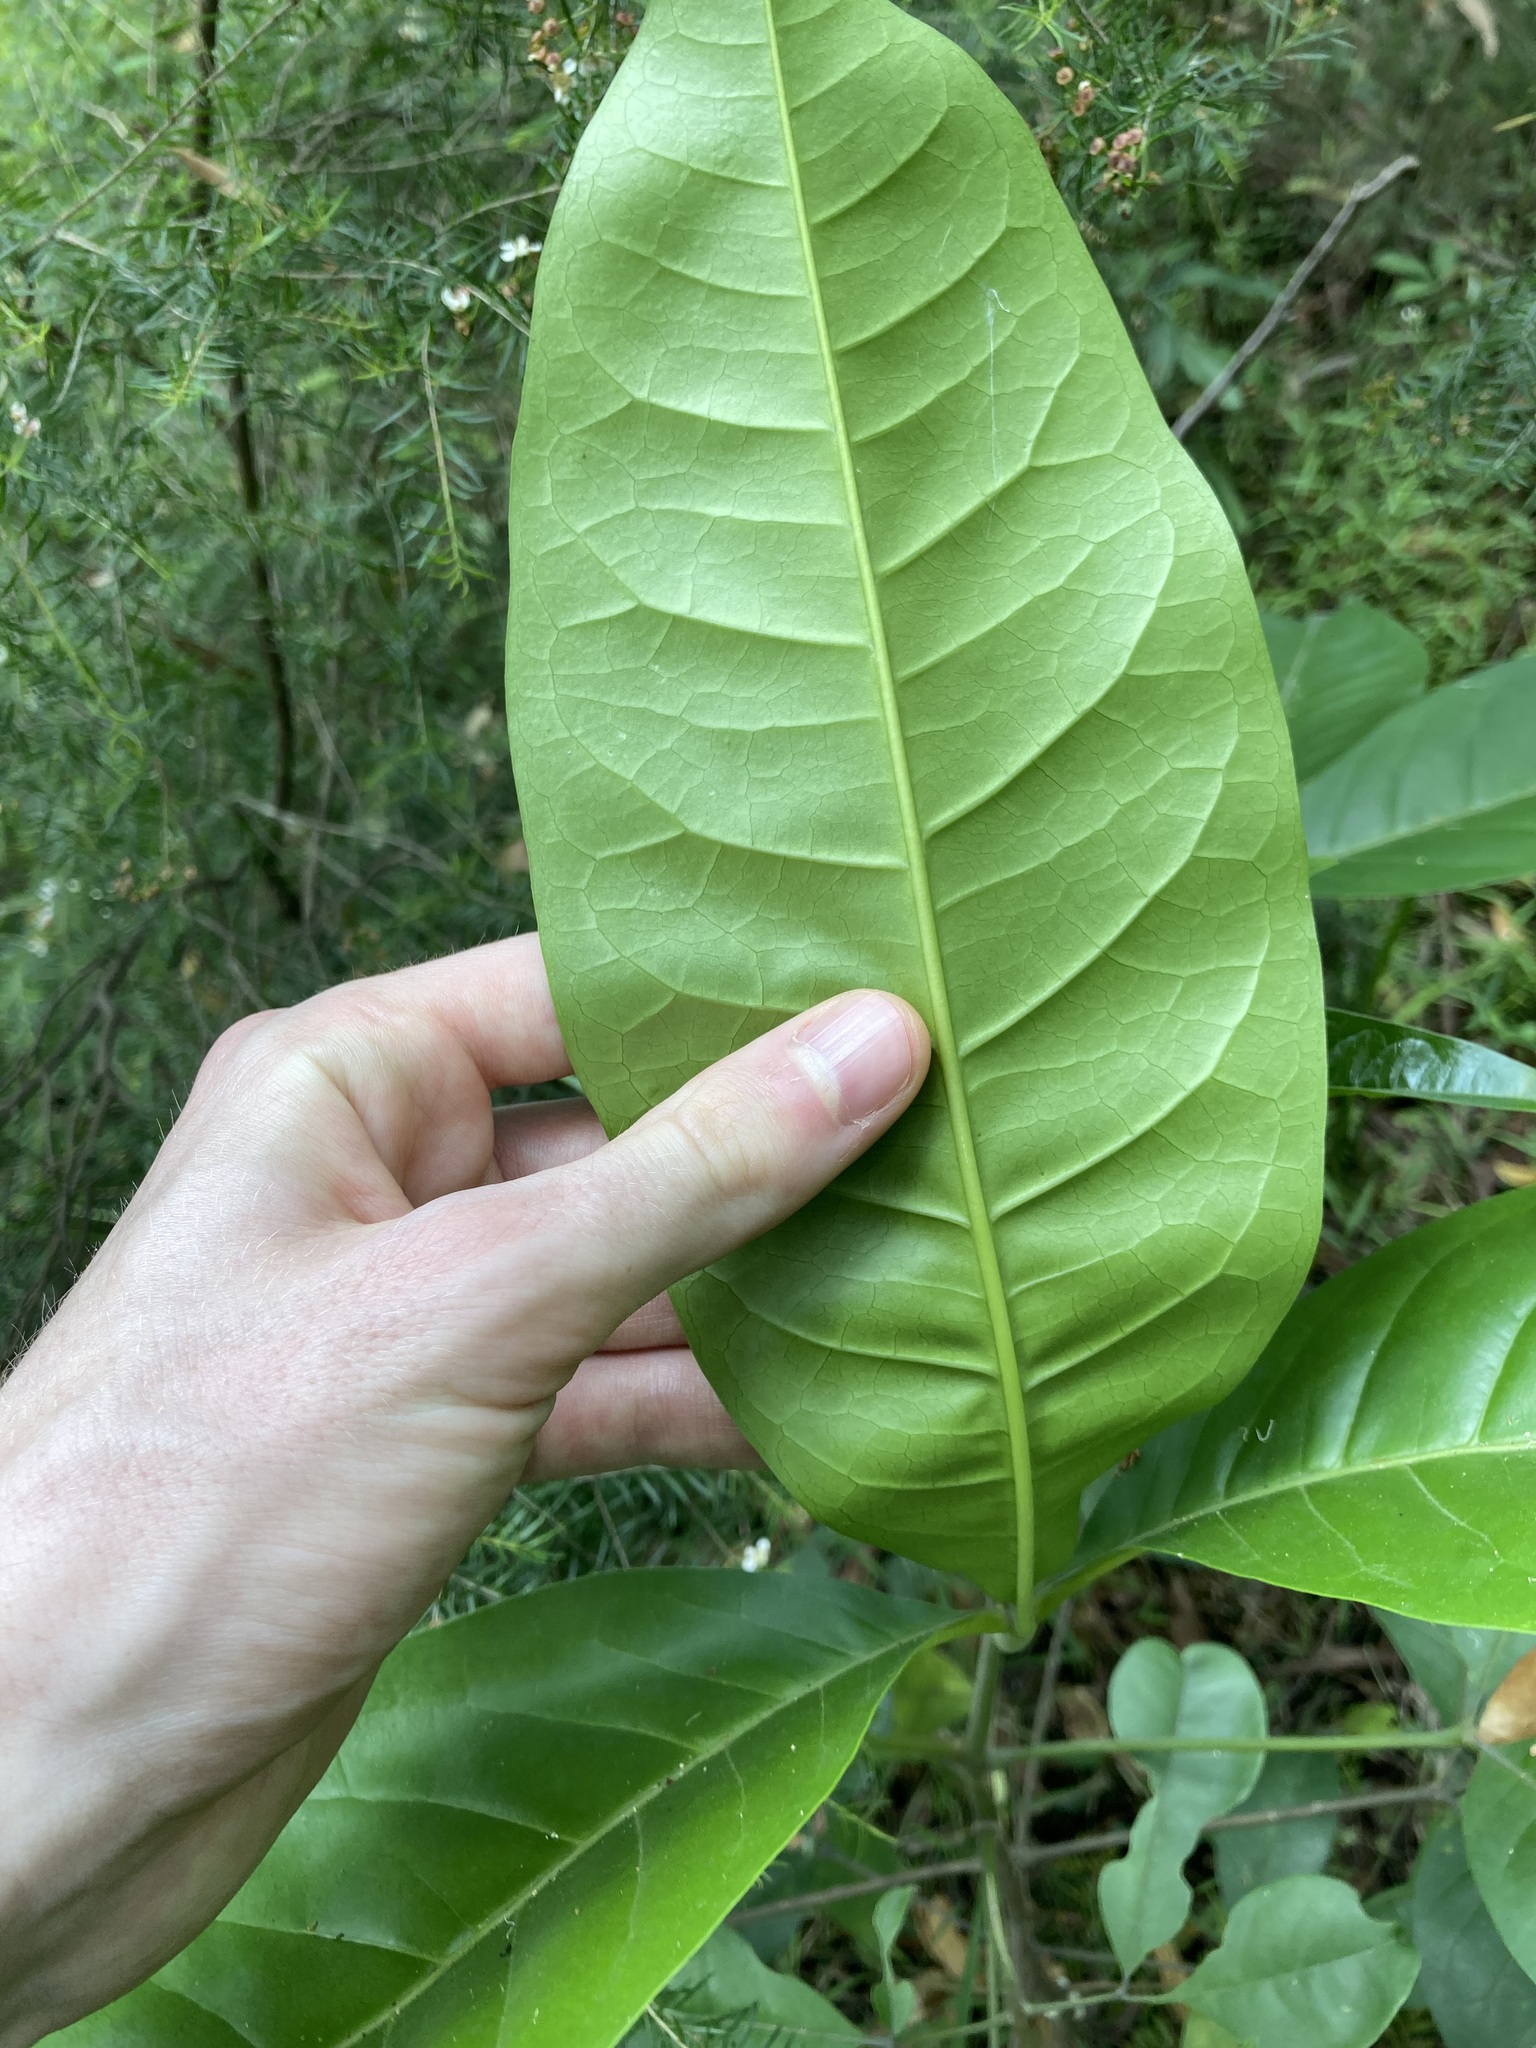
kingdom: Plantae
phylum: Tracheophyta
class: Magnoliopsida
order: Sapindales
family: Rutaceae
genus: Melicope
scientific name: Melicope elleryana
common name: Pink euodia
